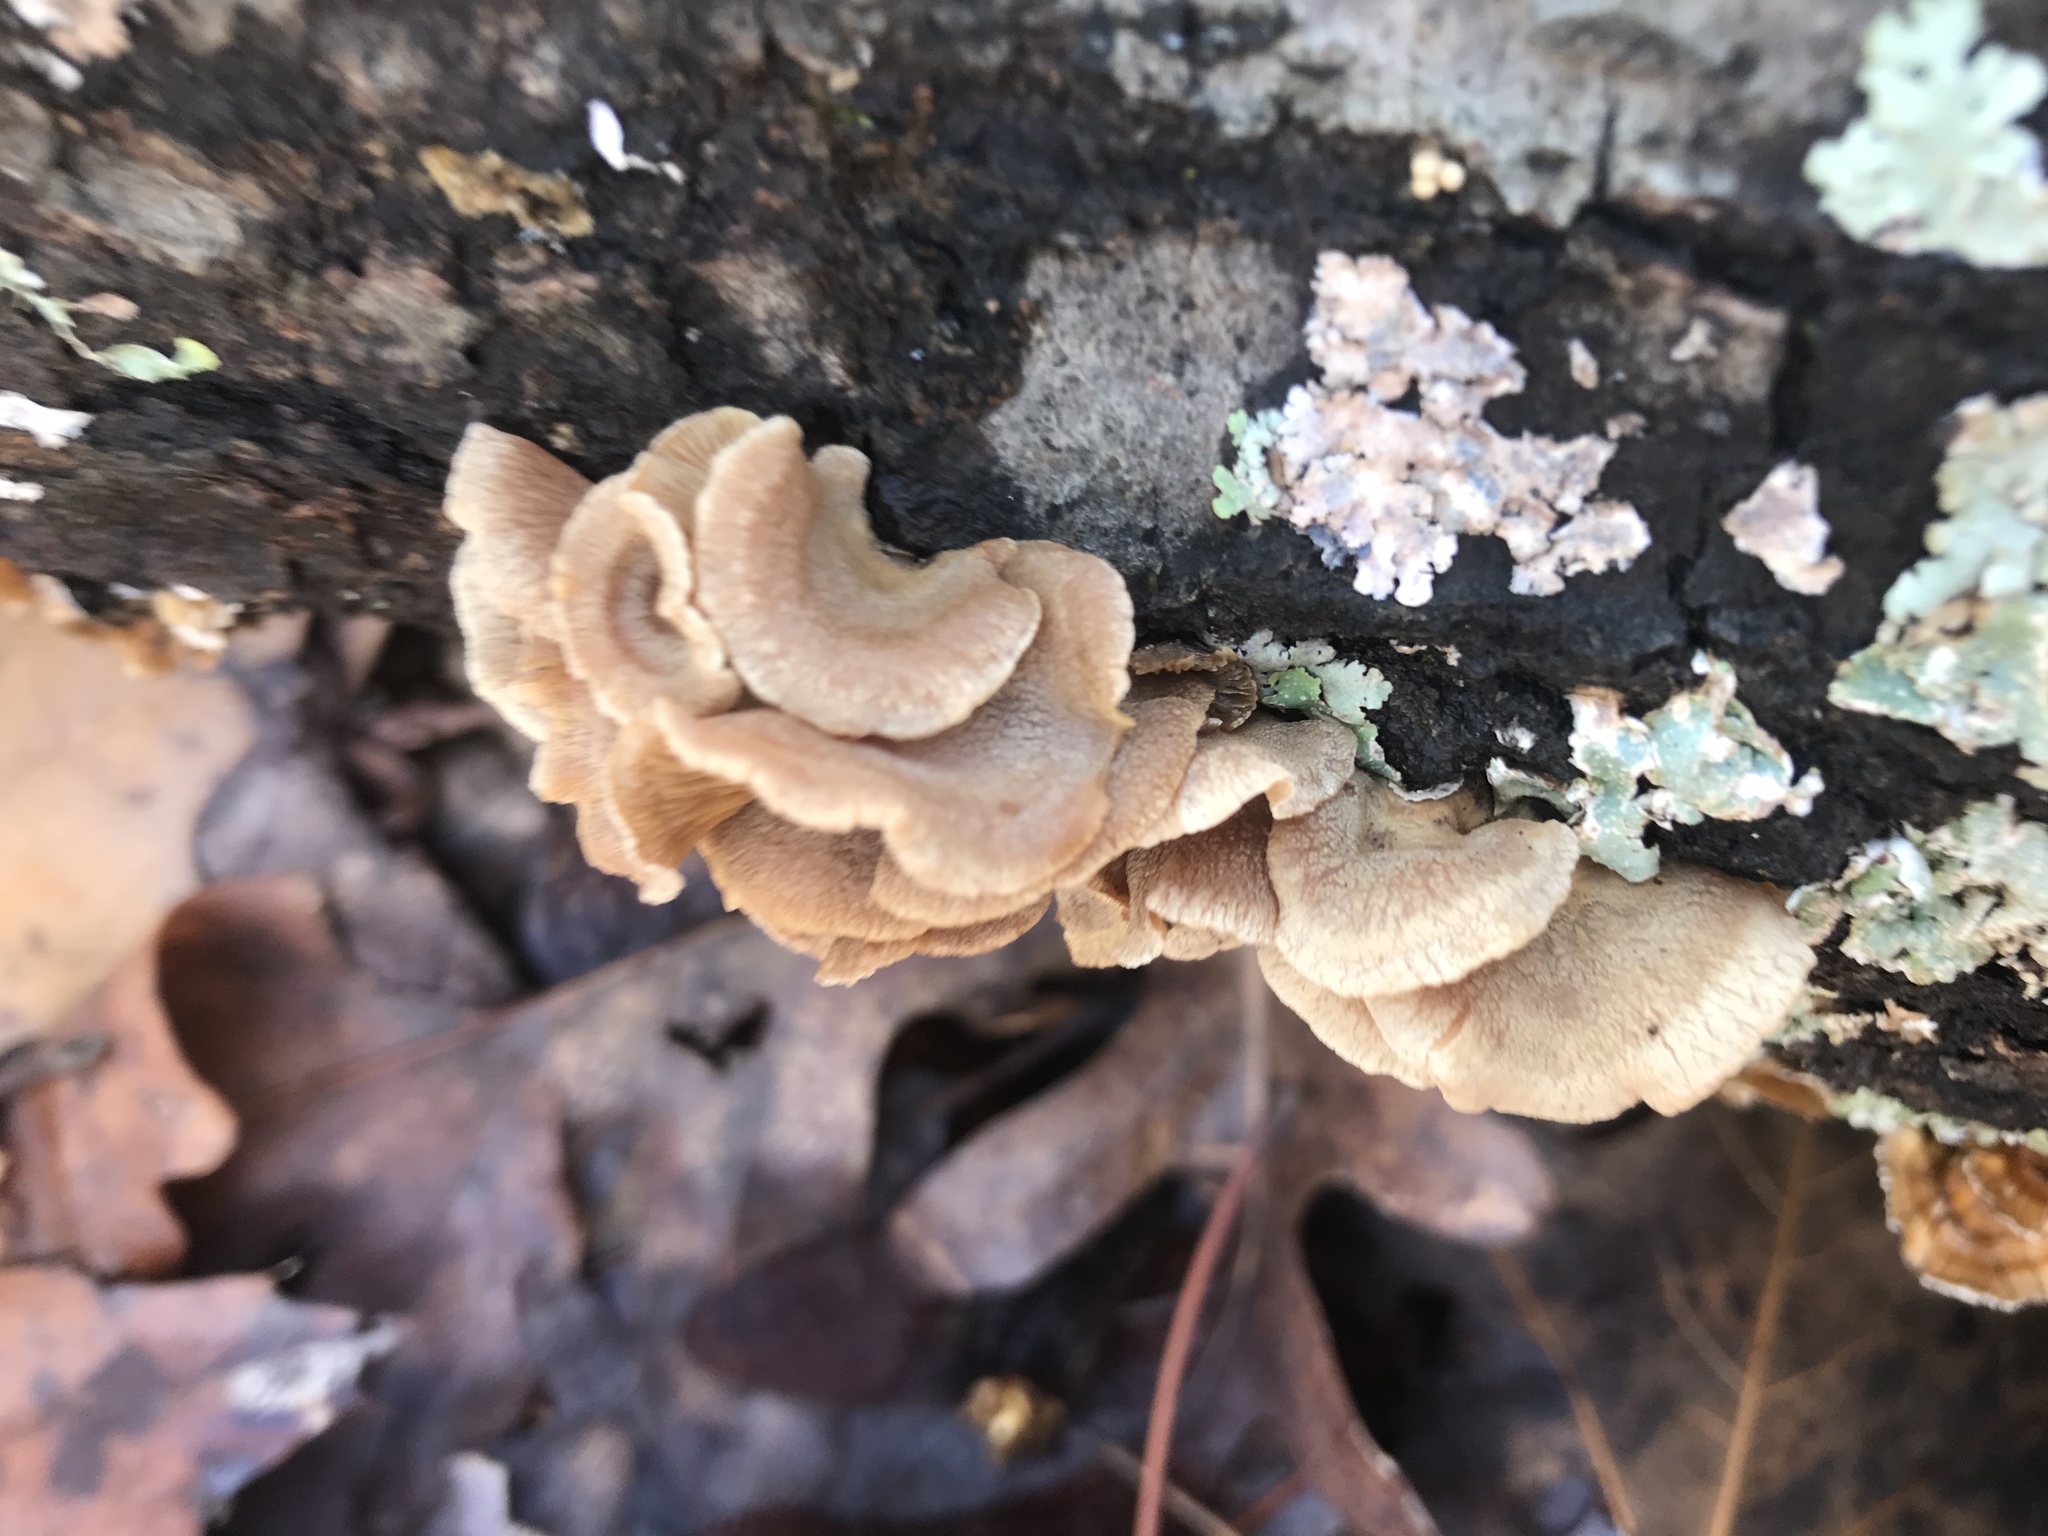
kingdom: Fungi
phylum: Basidiomycota
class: Agaricomycetes
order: Amylocorticiales
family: Amylocorticiaceae
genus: Plicaturopsis
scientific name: Plicaturopsis crispa
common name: Crimped gill
